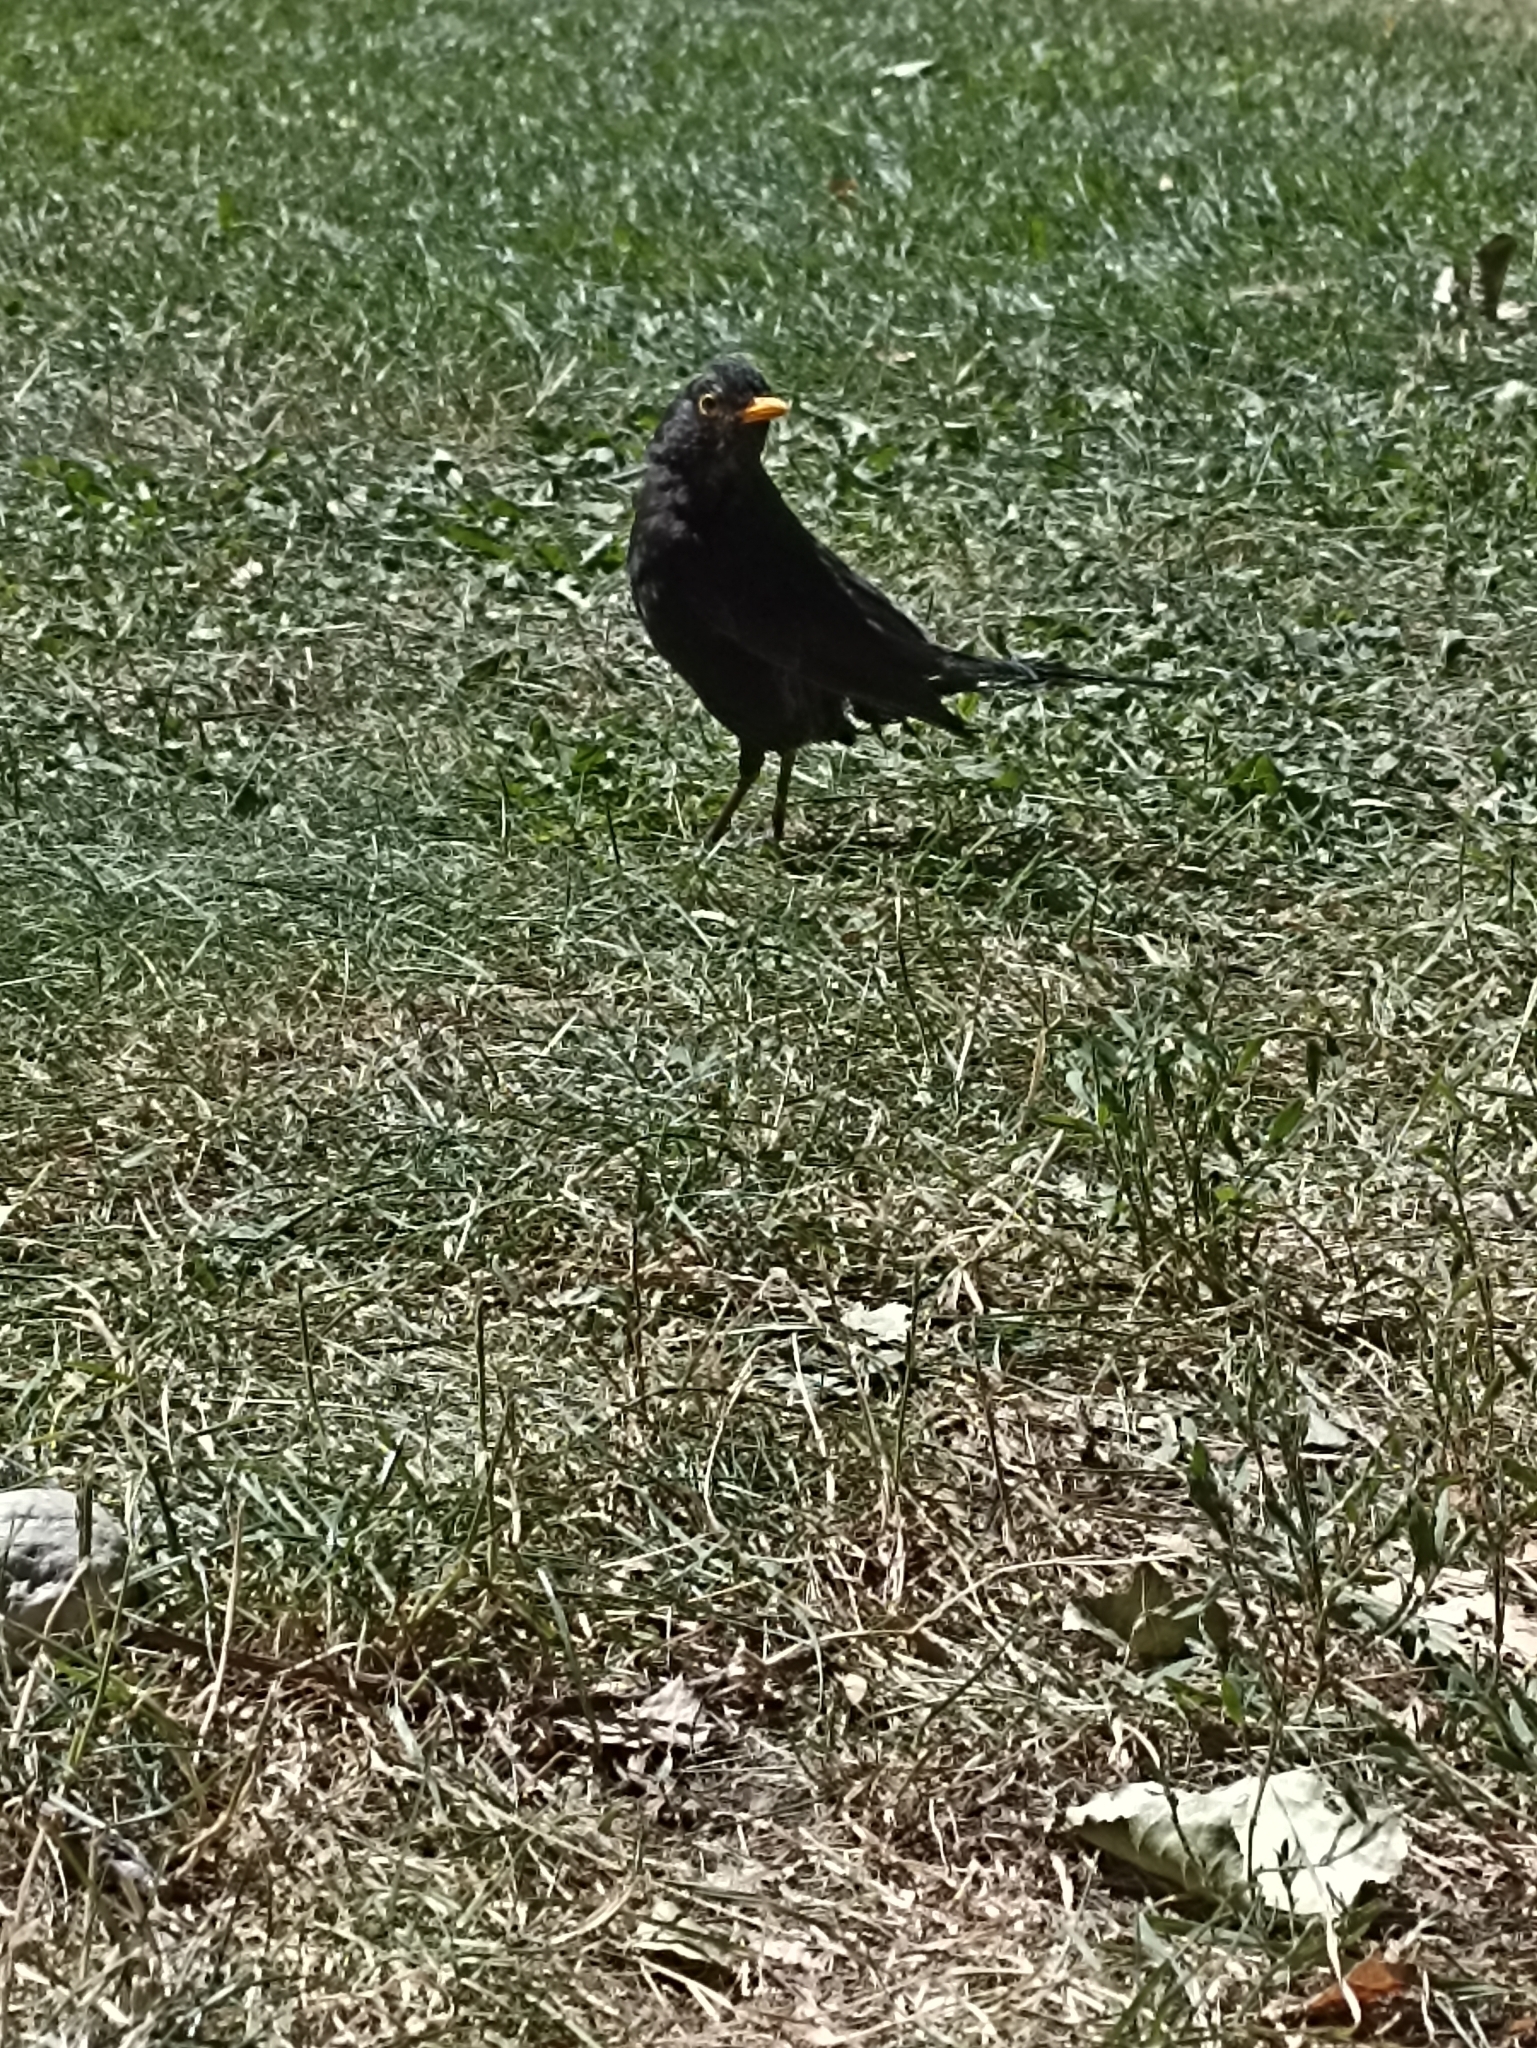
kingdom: Animalia
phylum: Chordata
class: Aves
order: Passeriformes
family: Turdidae
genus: Turdus
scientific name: Turdus merula
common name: Common blackbird
